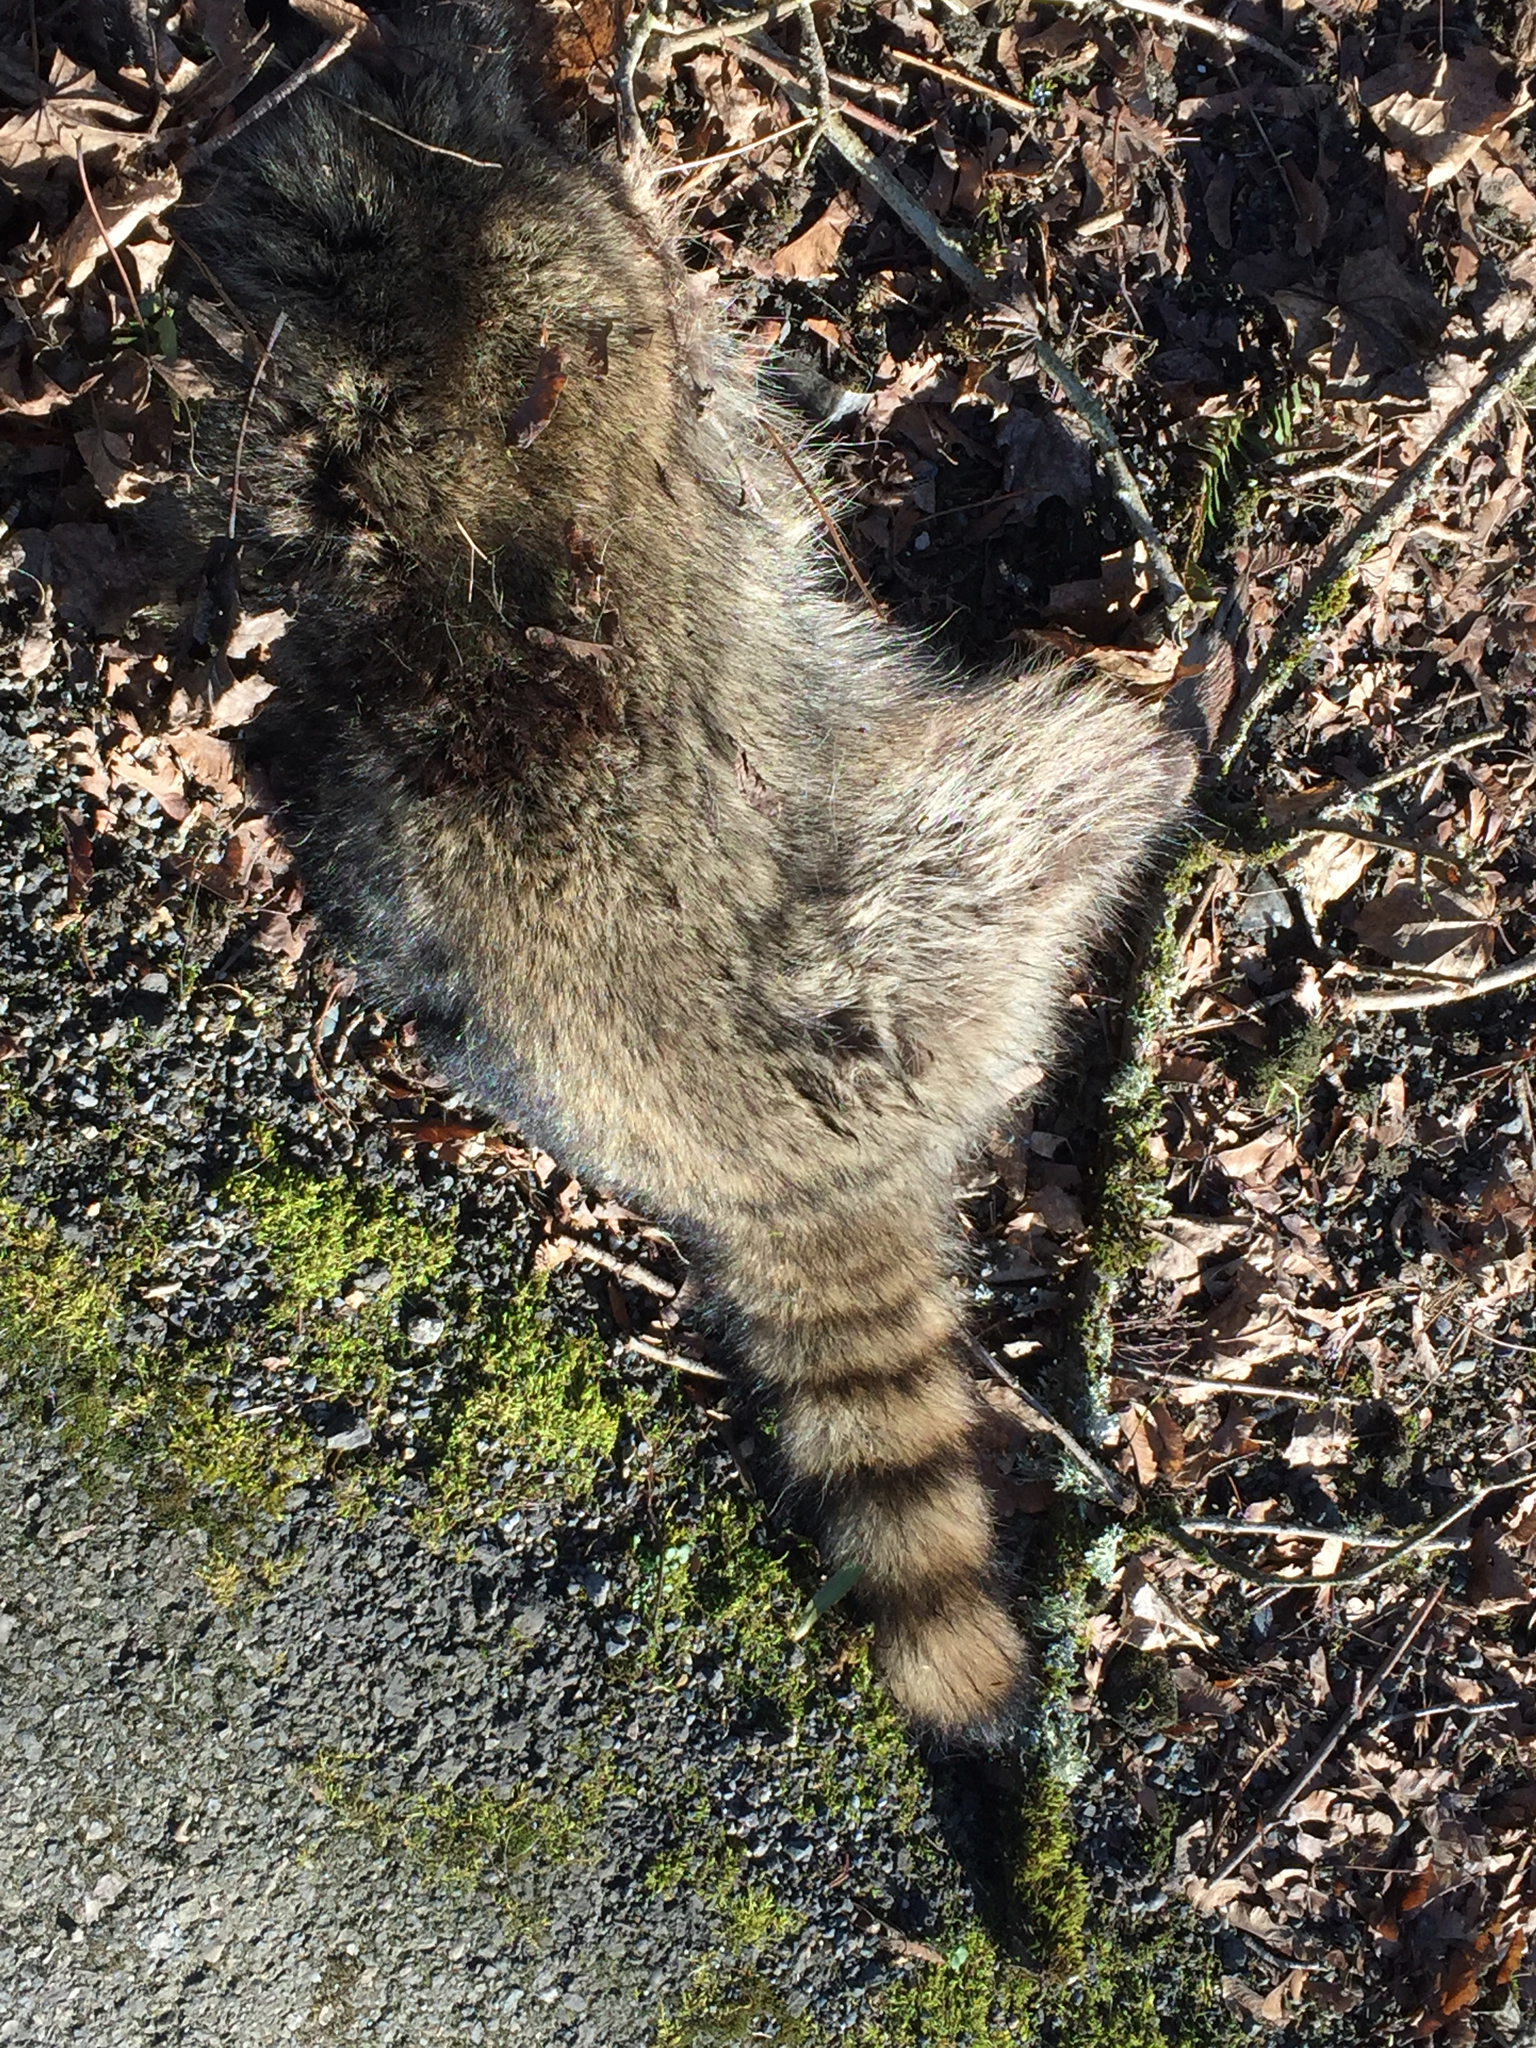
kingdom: Animalia
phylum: Chordata
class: Mammalia
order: Carnivora
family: Procyonidae
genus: Procyon
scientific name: Procyon lotor
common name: Raccoon
